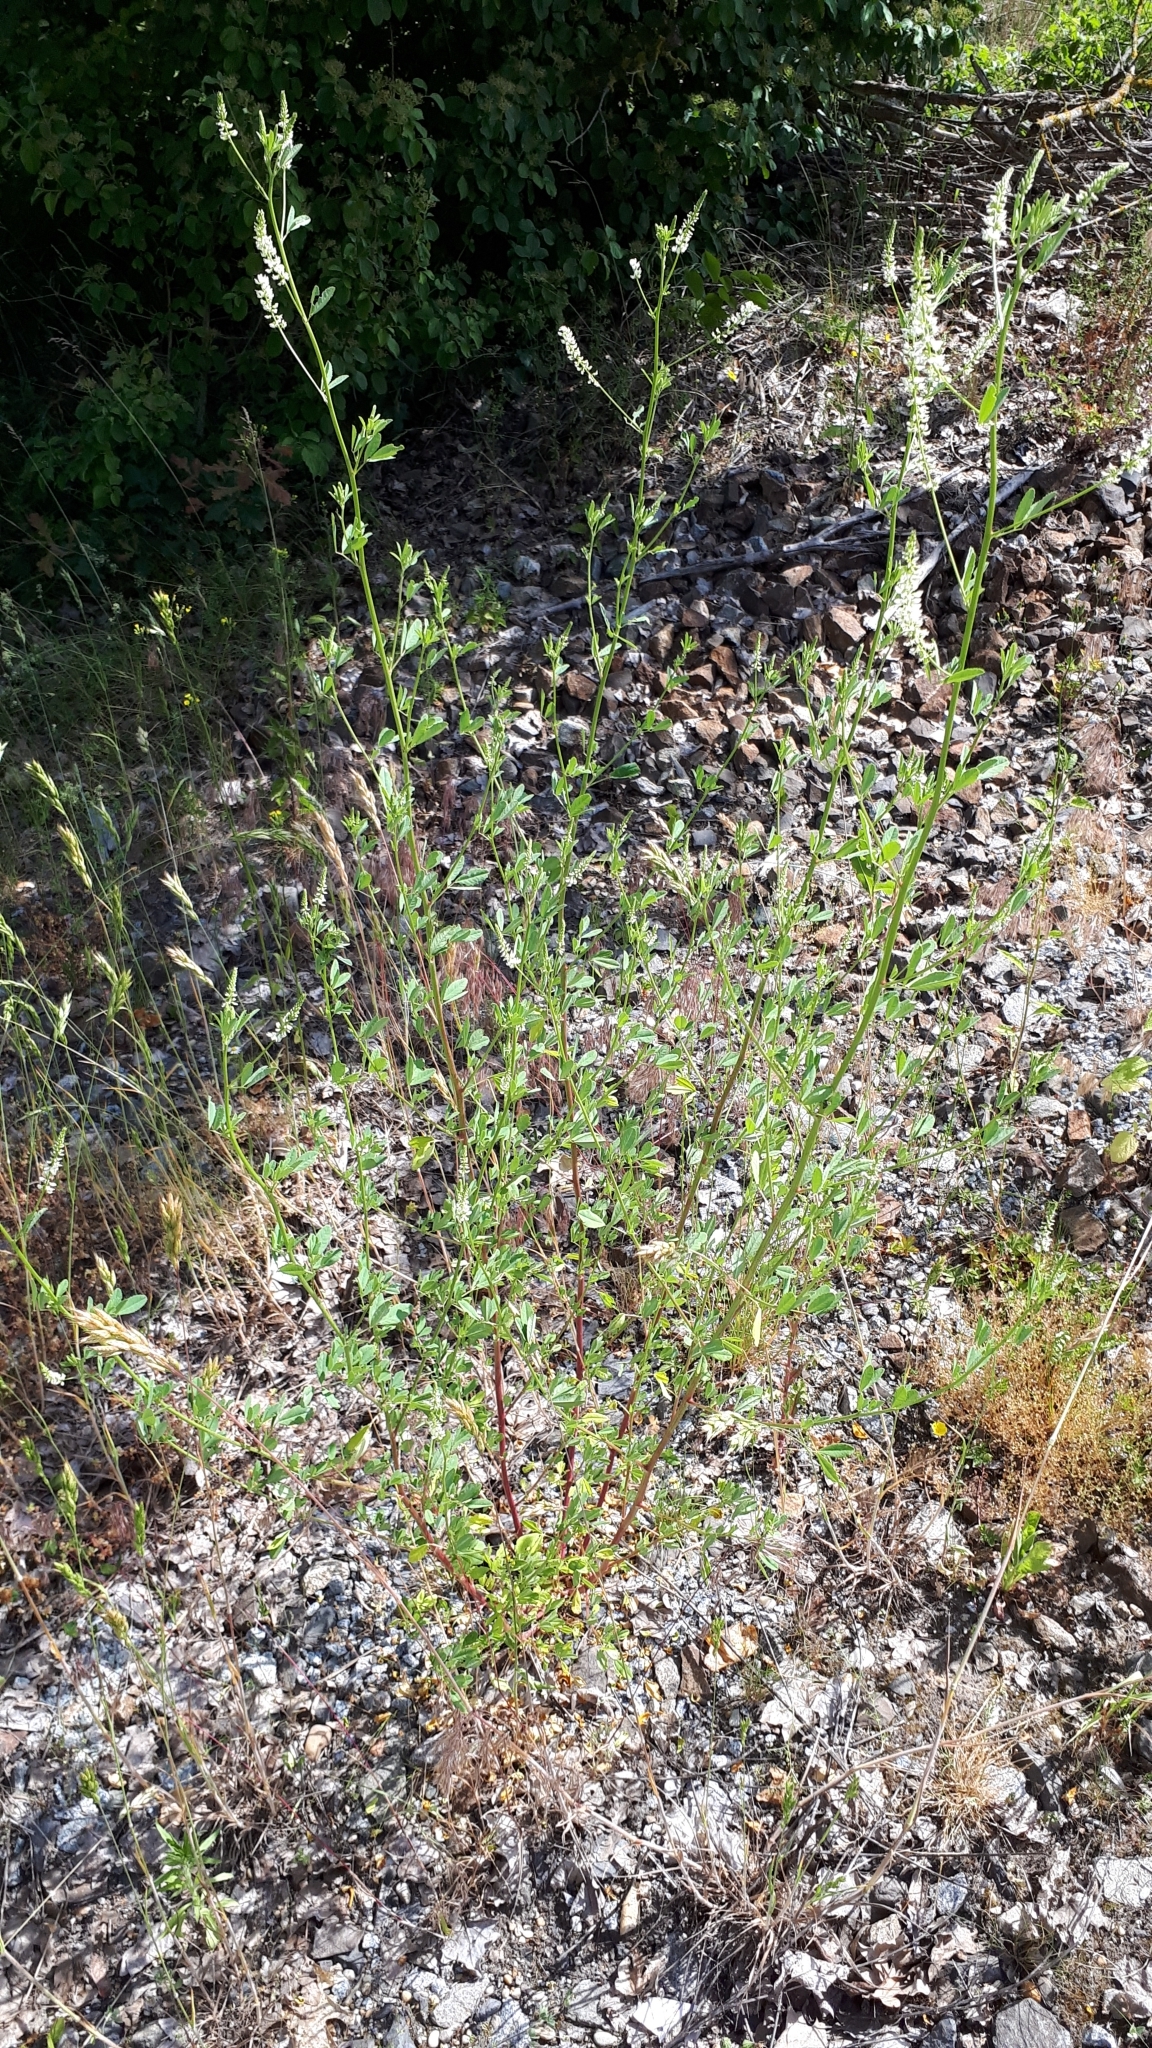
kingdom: Plantae
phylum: Tracheophyta
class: Magnoliopsida
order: Fabales
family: Fabaceae
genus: Melilotus
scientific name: Melilotus albus
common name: White melilot
